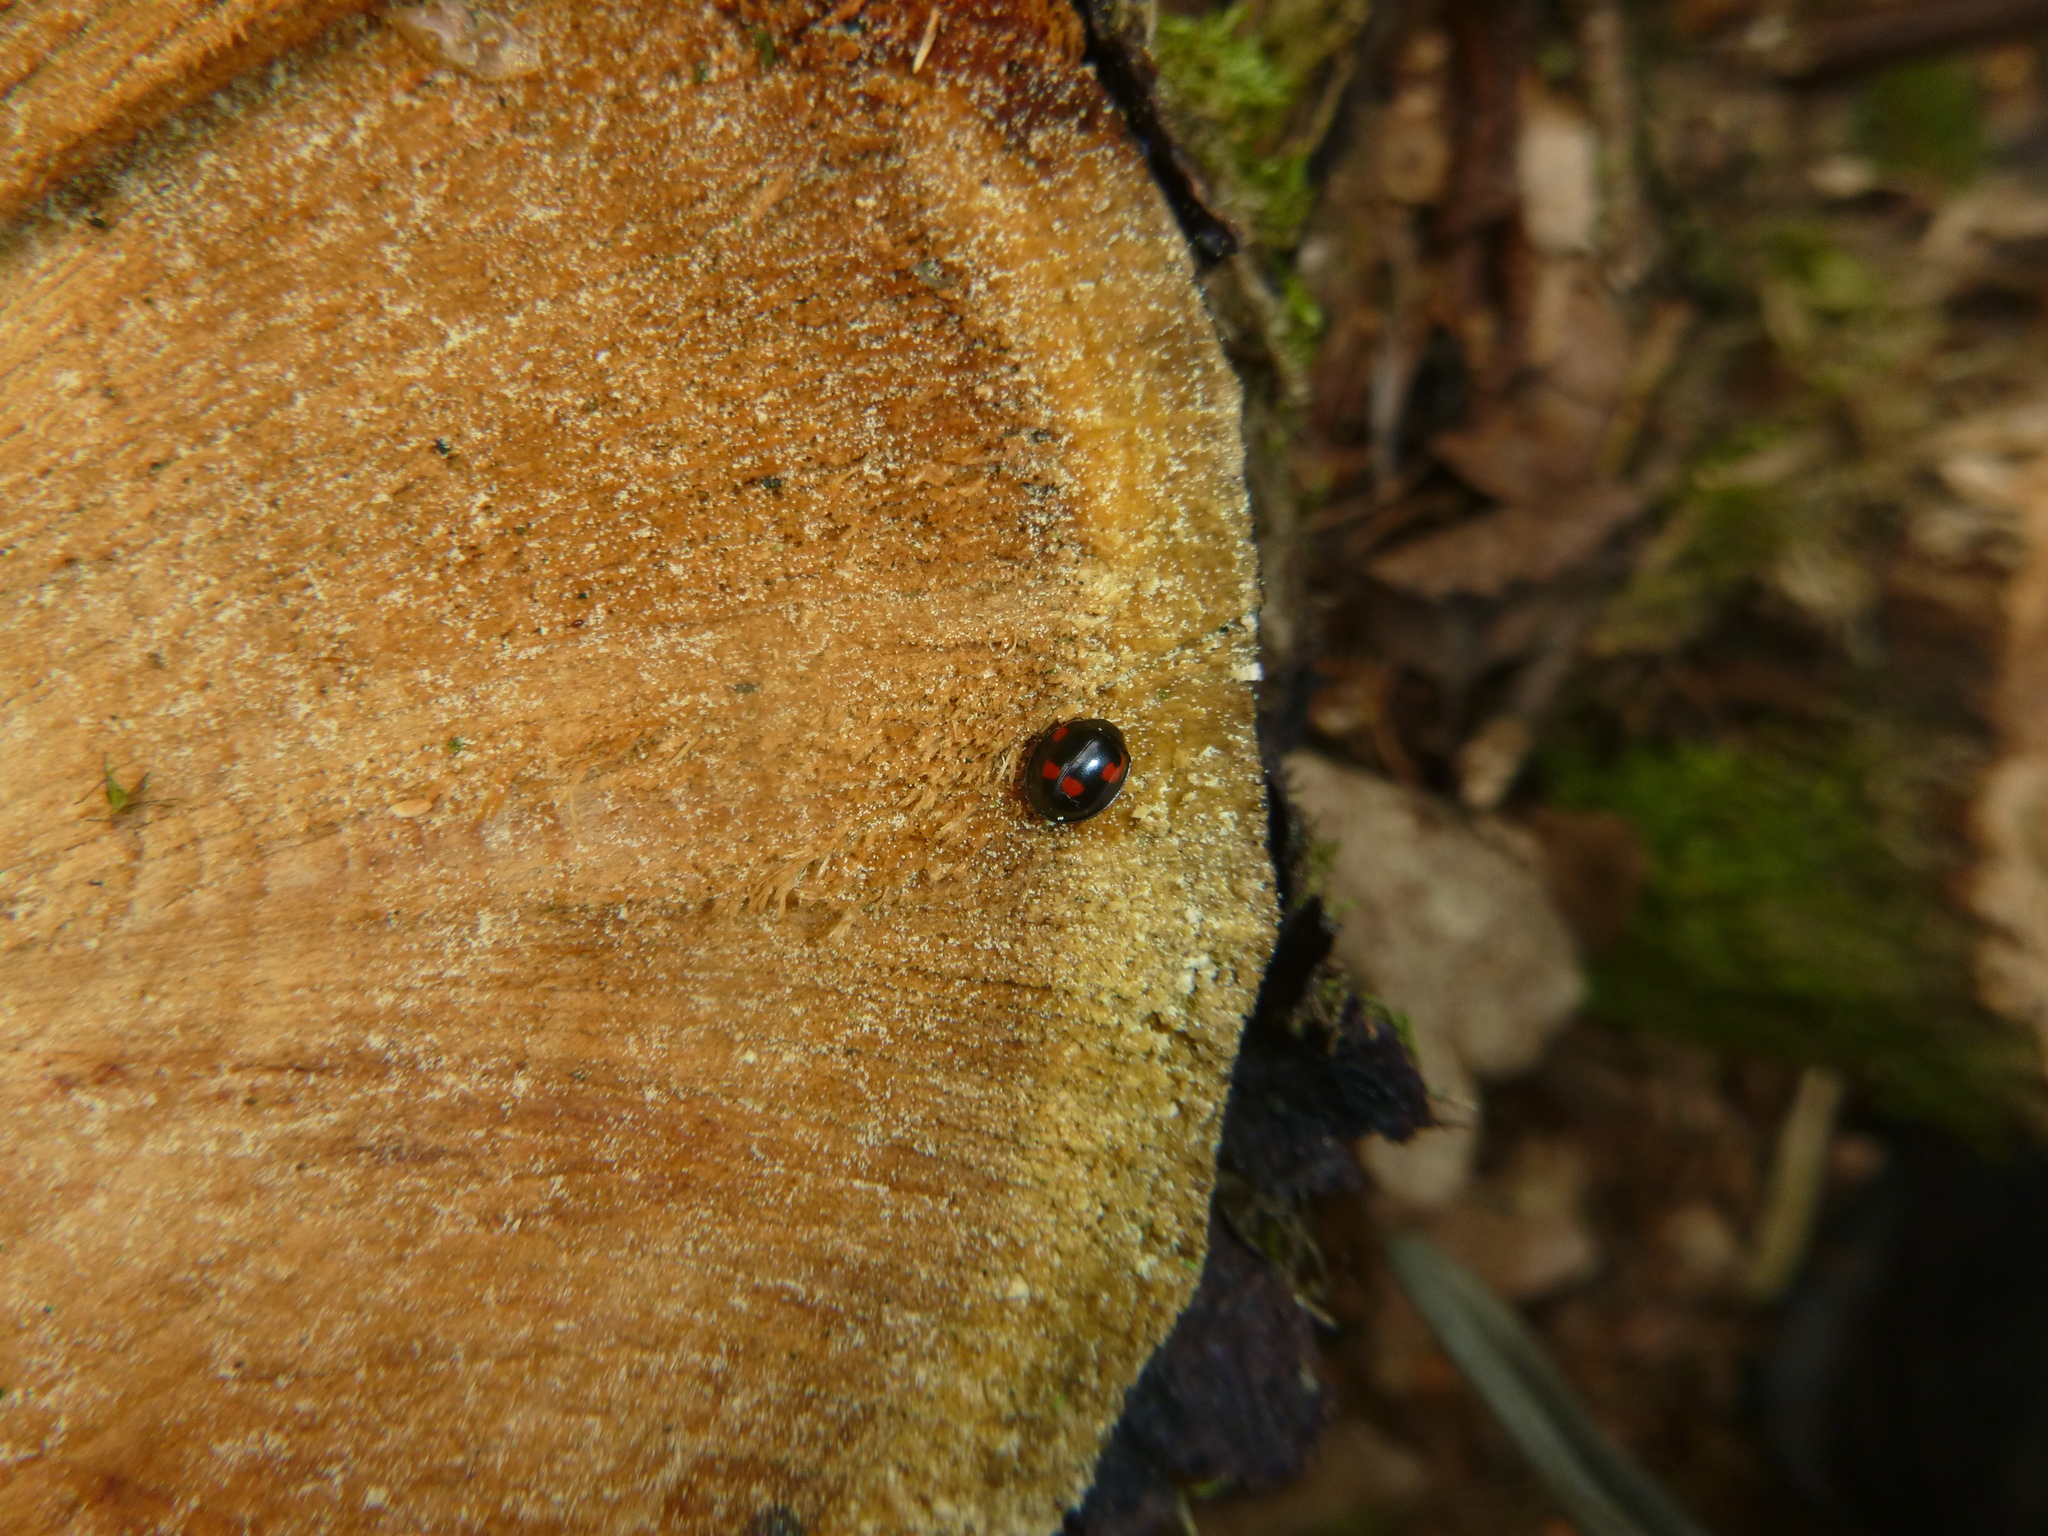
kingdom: Animalia
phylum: Arthropoda
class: Insecta
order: Coleoptera
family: Coccinellidae
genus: Brumus
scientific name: Brumus quadripustulatus
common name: Ladybird beetle
